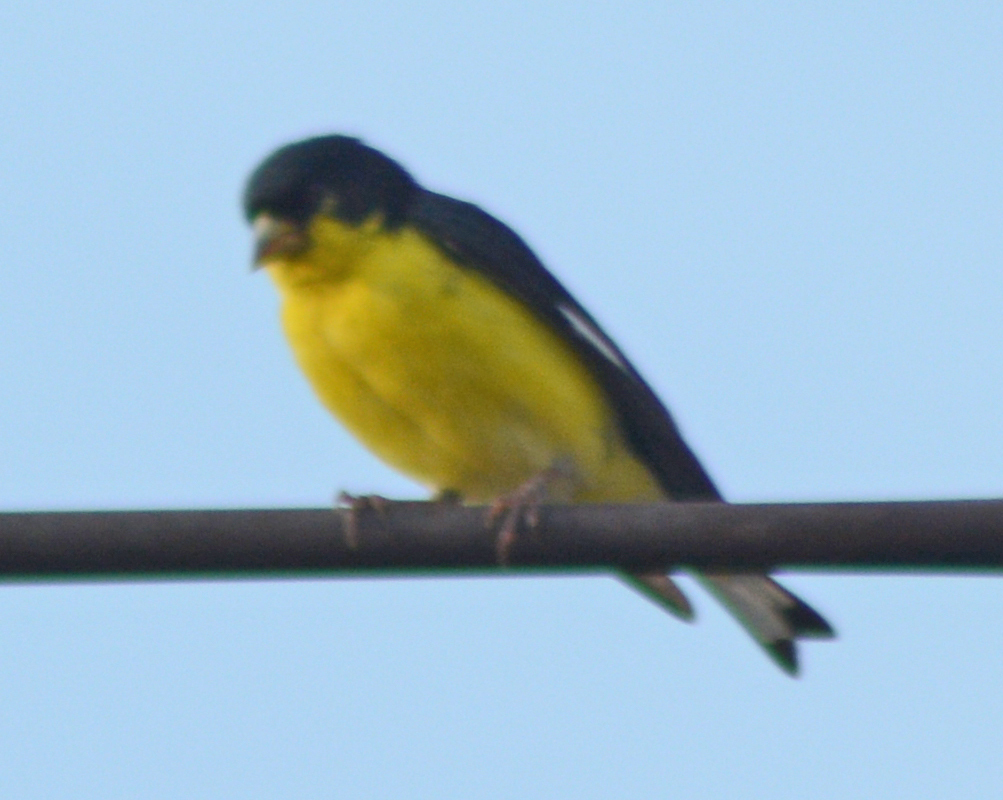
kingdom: Animalia
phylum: Chordata
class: Aves
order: Passeriformes
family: Fringillidae
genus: Spinus
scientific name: Spinus psaltria
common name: Lesser goldfinch
